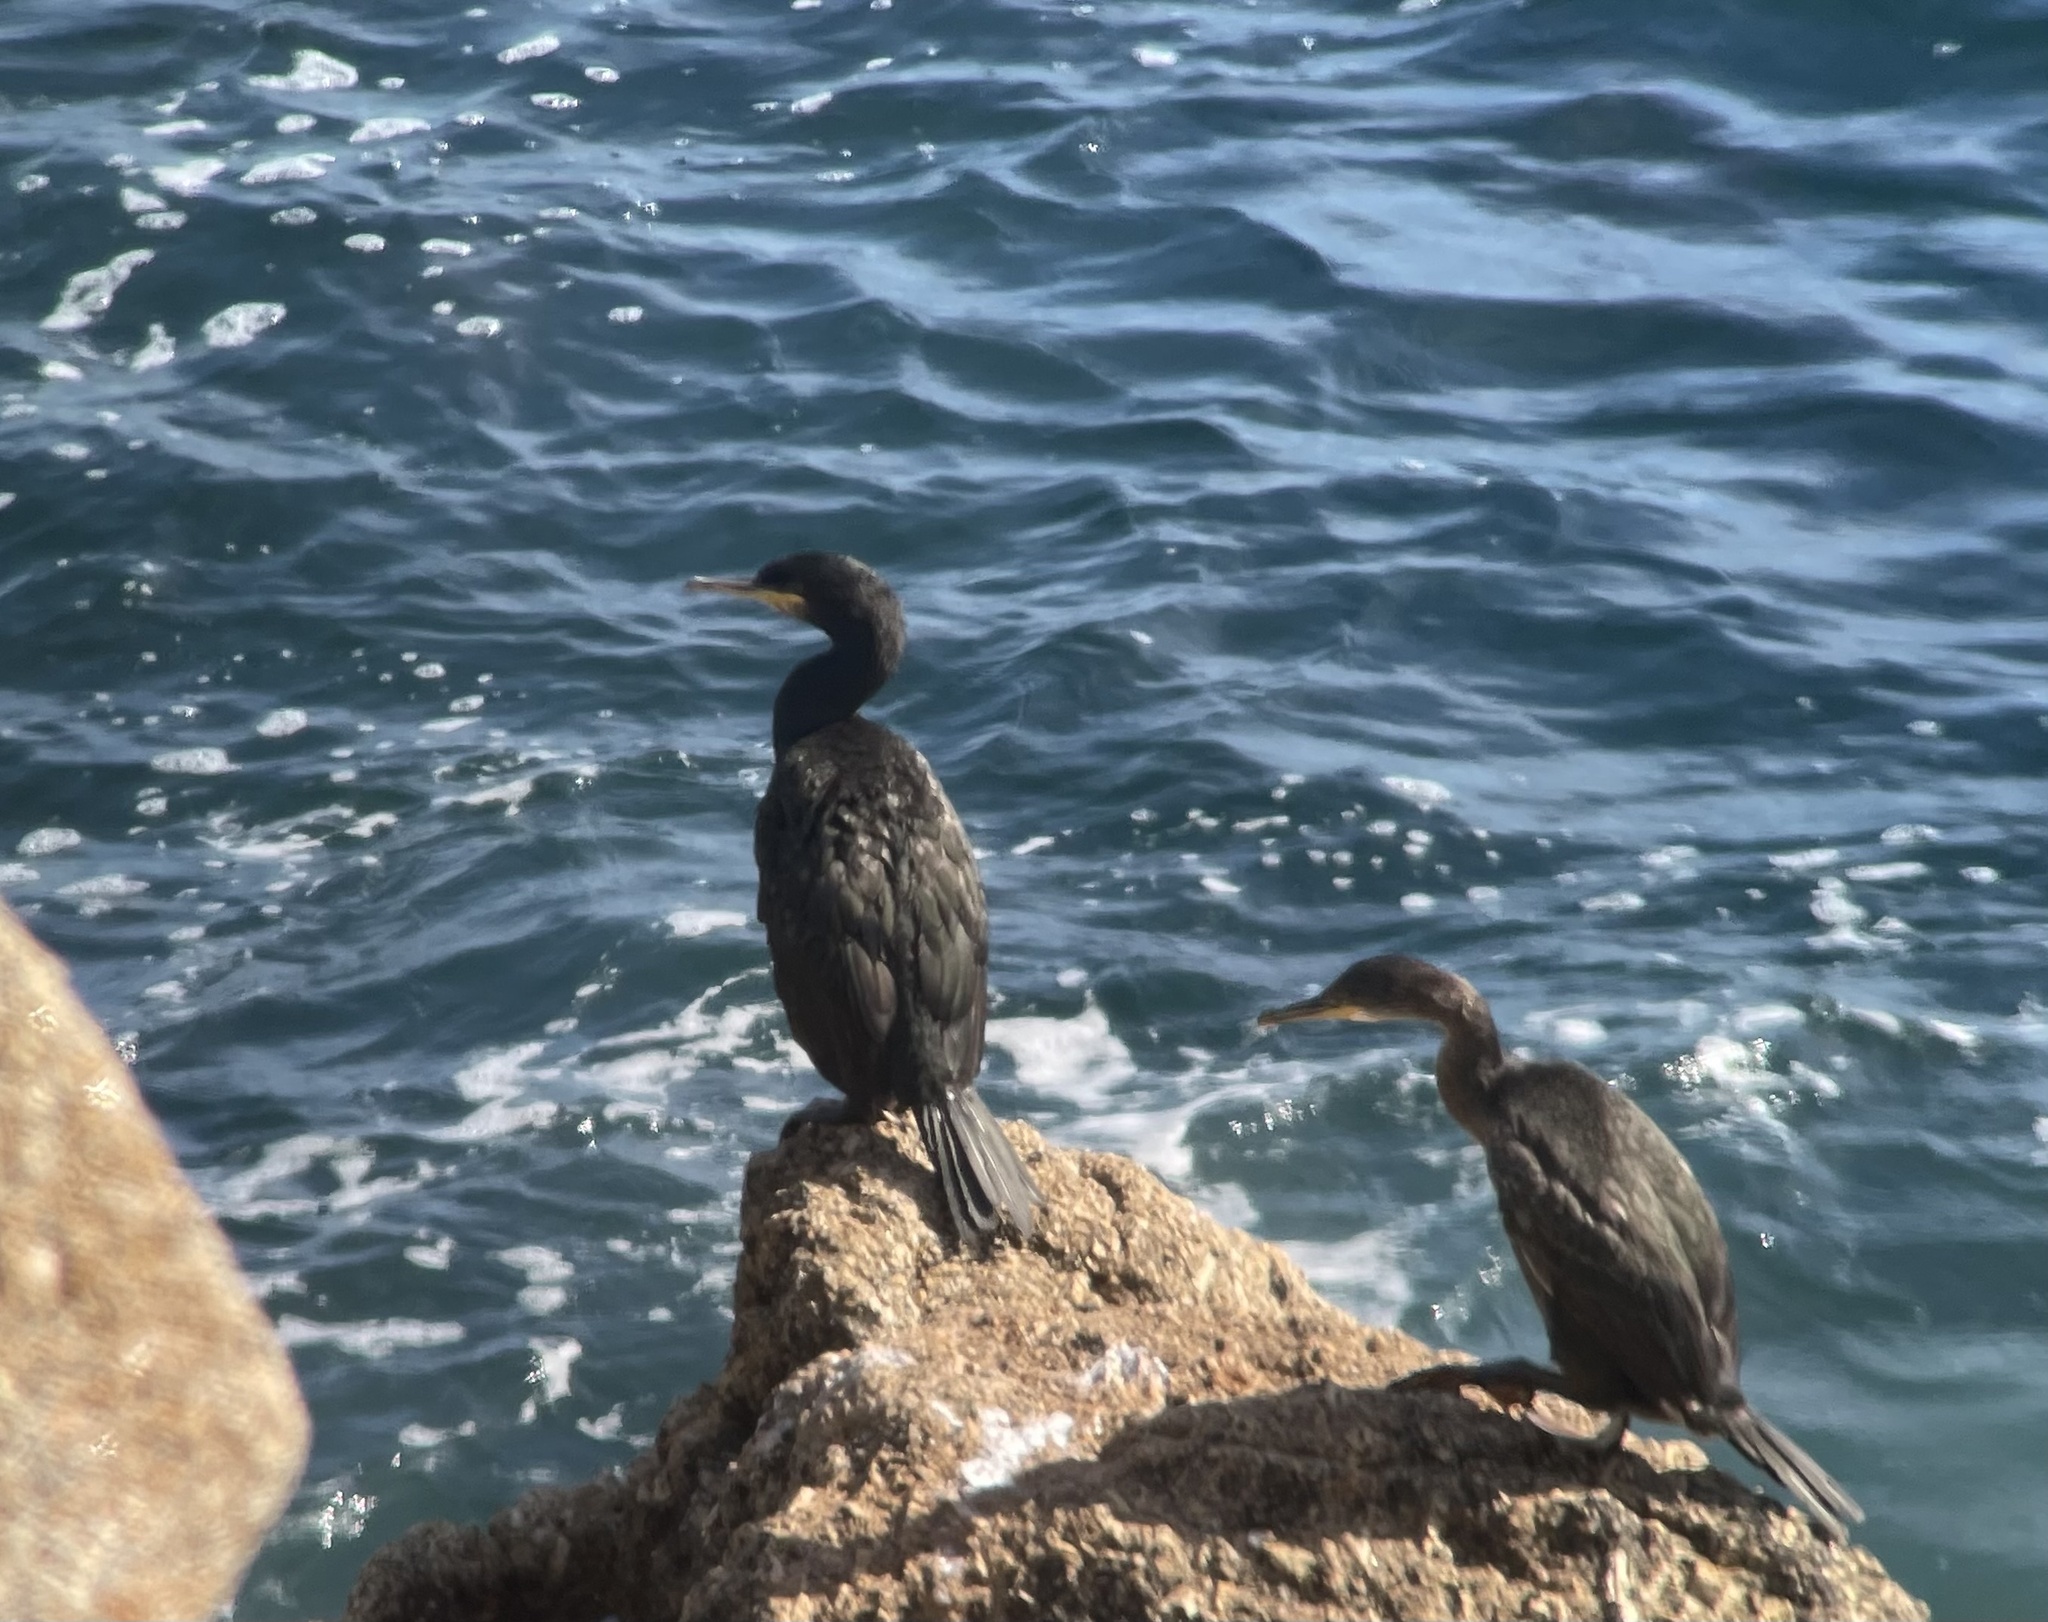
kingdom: Animalia
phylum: Chordata
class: Aves
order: Suliformes
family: Phalacrocoracidae
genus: Phalacrocorax
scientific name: Phalacrocorax aristotelis
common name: European shag
